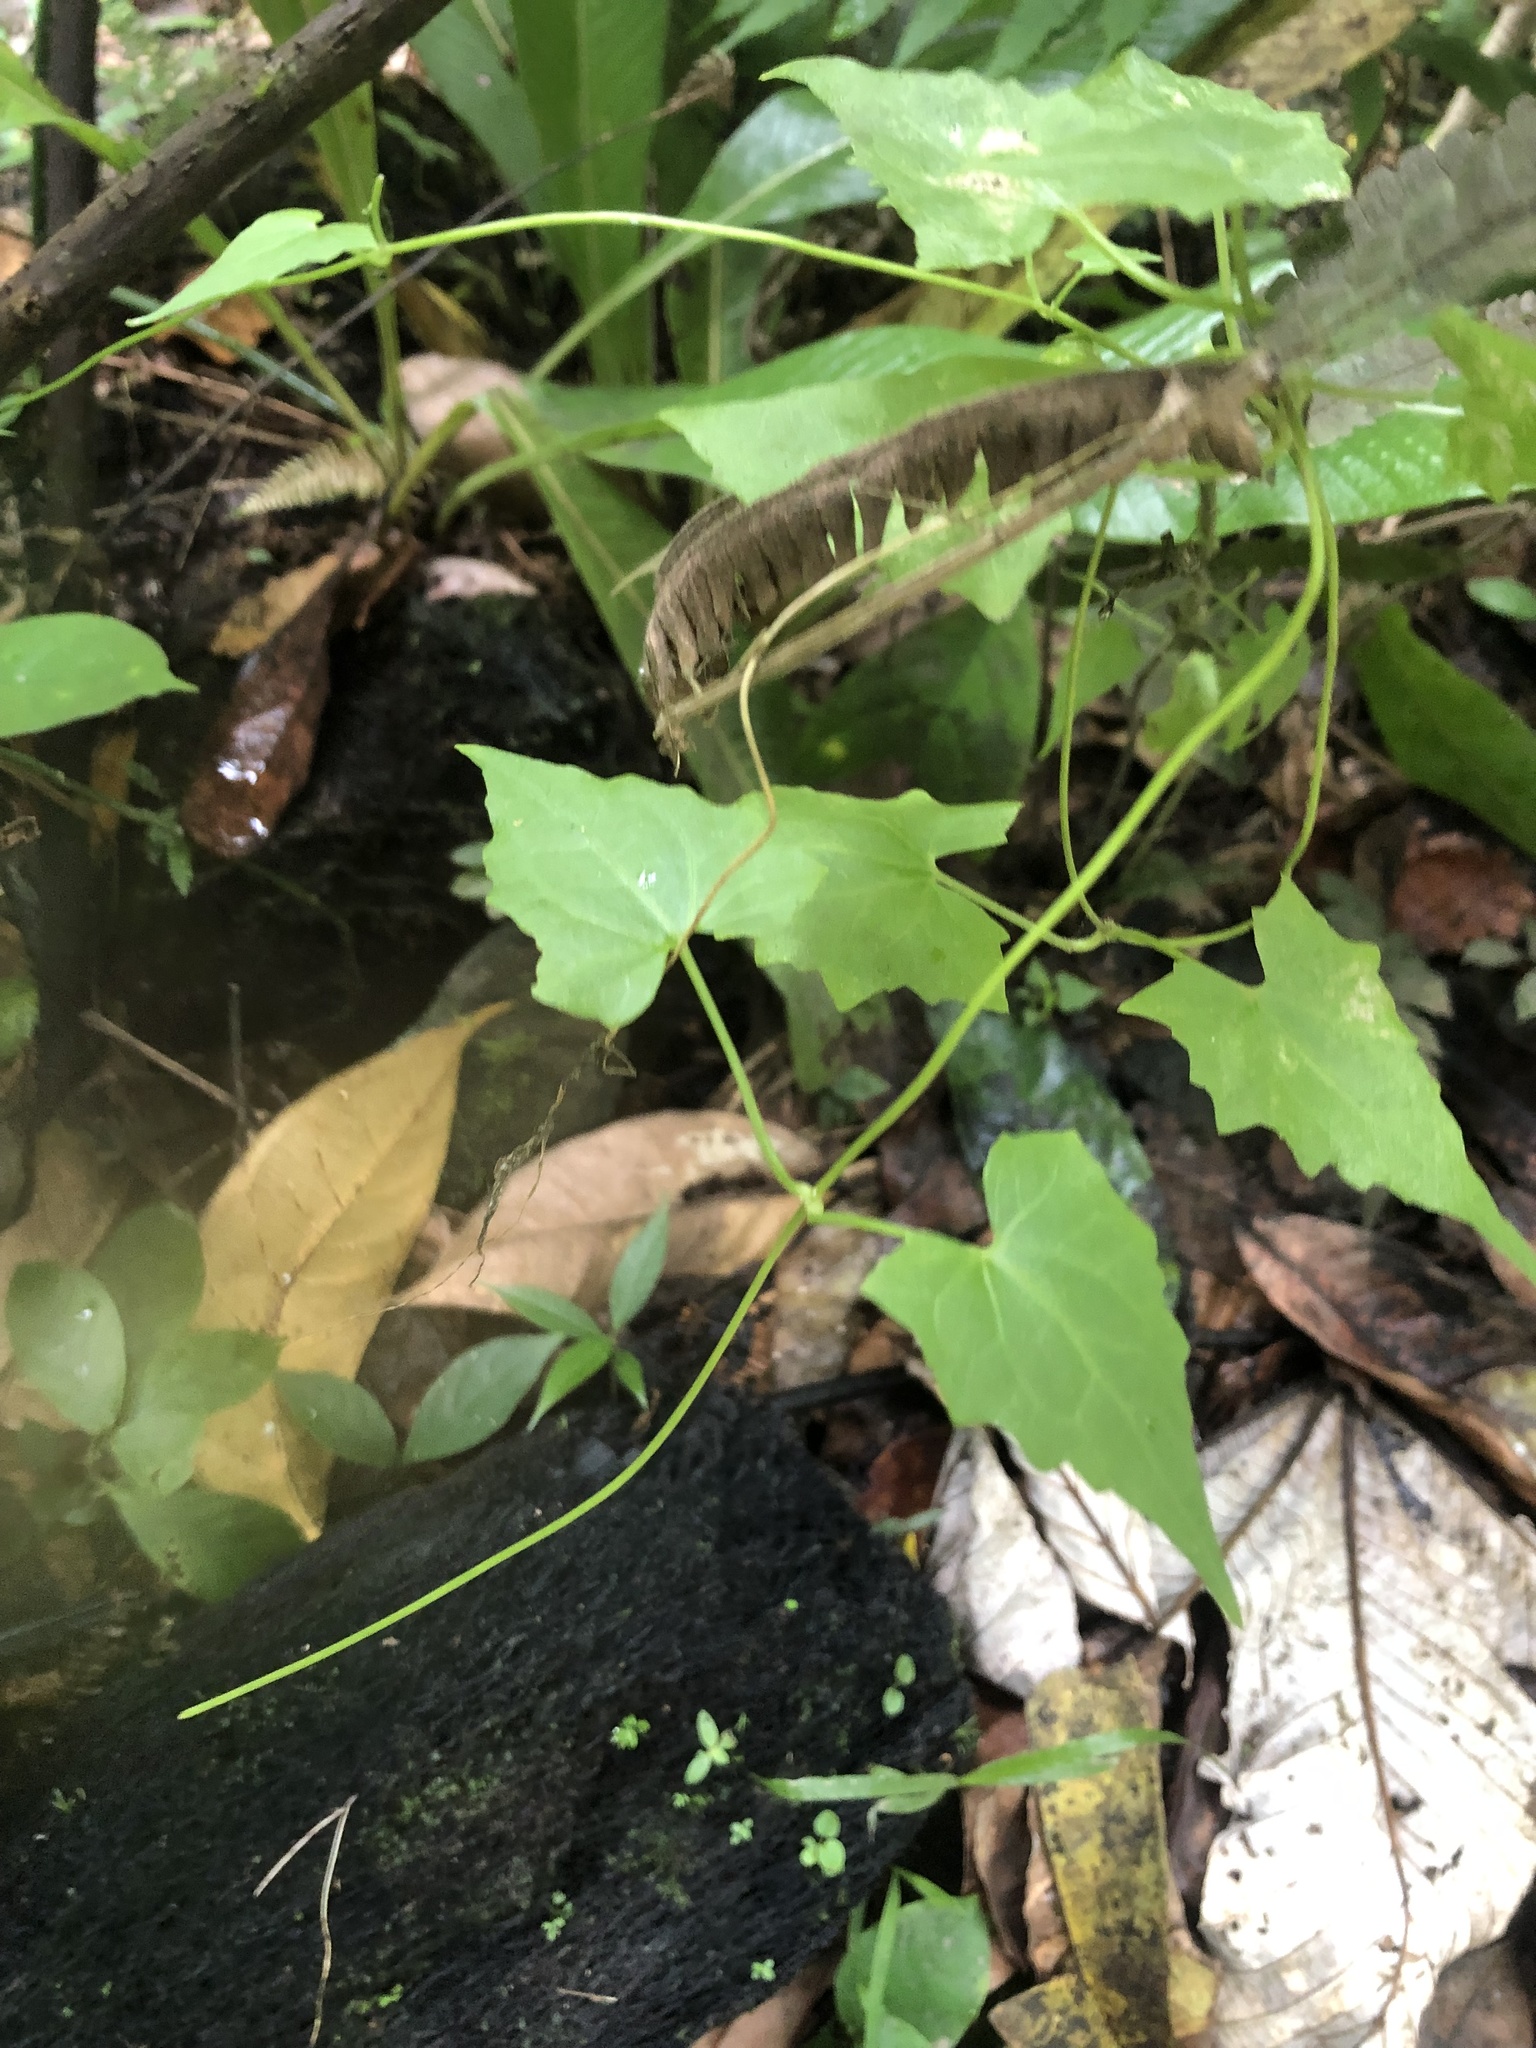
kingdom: Plantae
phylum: Tracheophyta
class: Magnoliopsida
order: Asterales
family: Asteraceae
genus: Mikania
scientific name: Mikania micrantha
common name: Mile-a-minute
